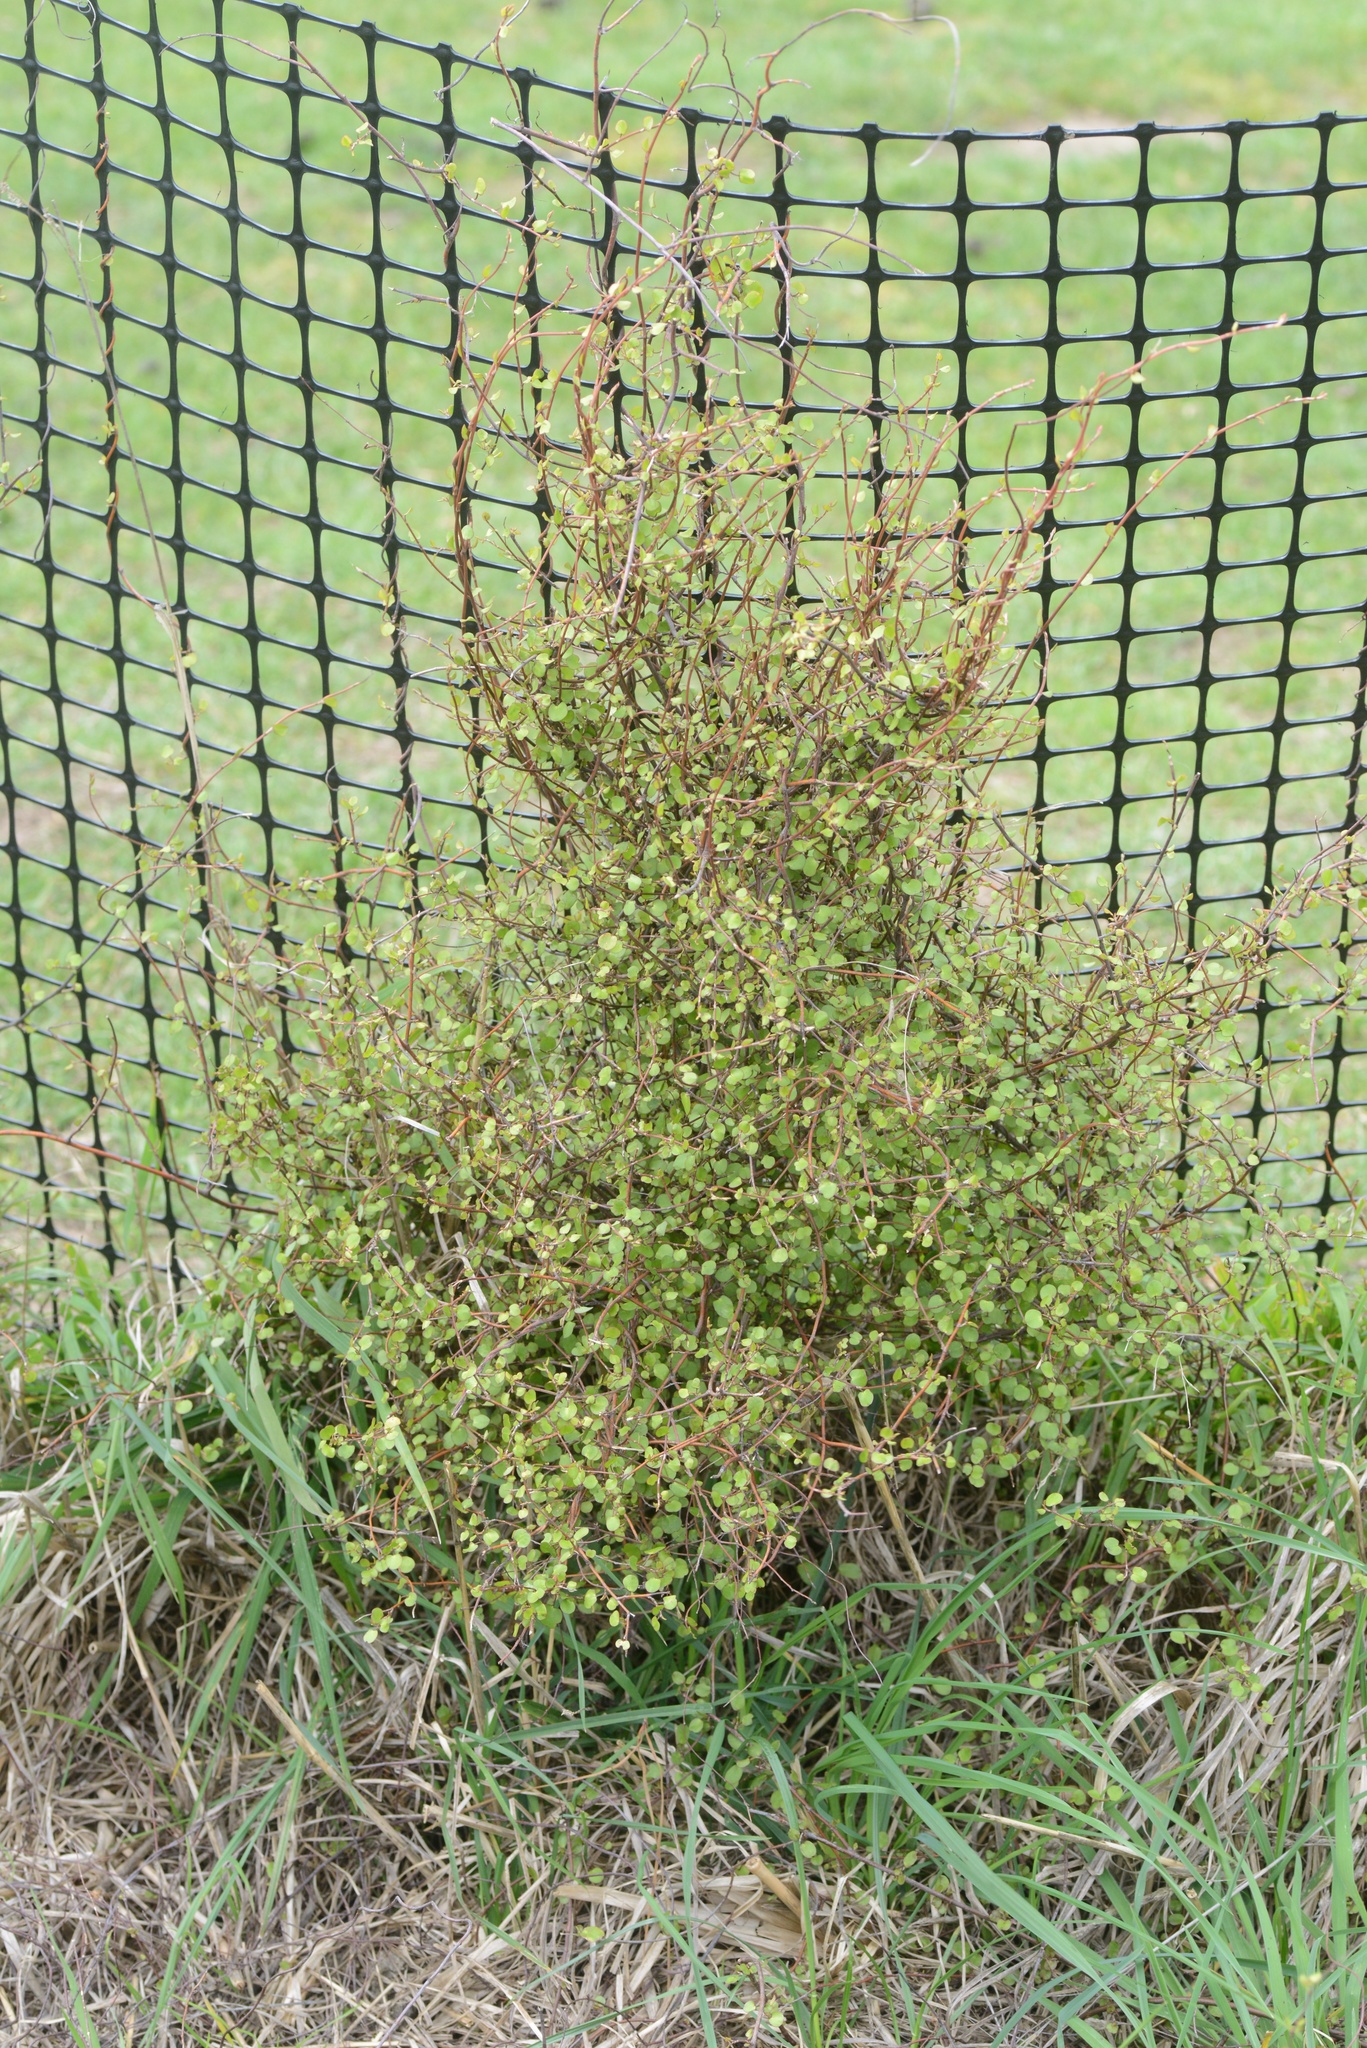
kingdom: Plantae
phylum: Tracheophyta
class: Magnoliopsida
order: Caryophyllales
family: Polygonaceae
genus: Muehlenbeckia
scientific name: Muehlenbeckia complexa
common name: Wireplant
